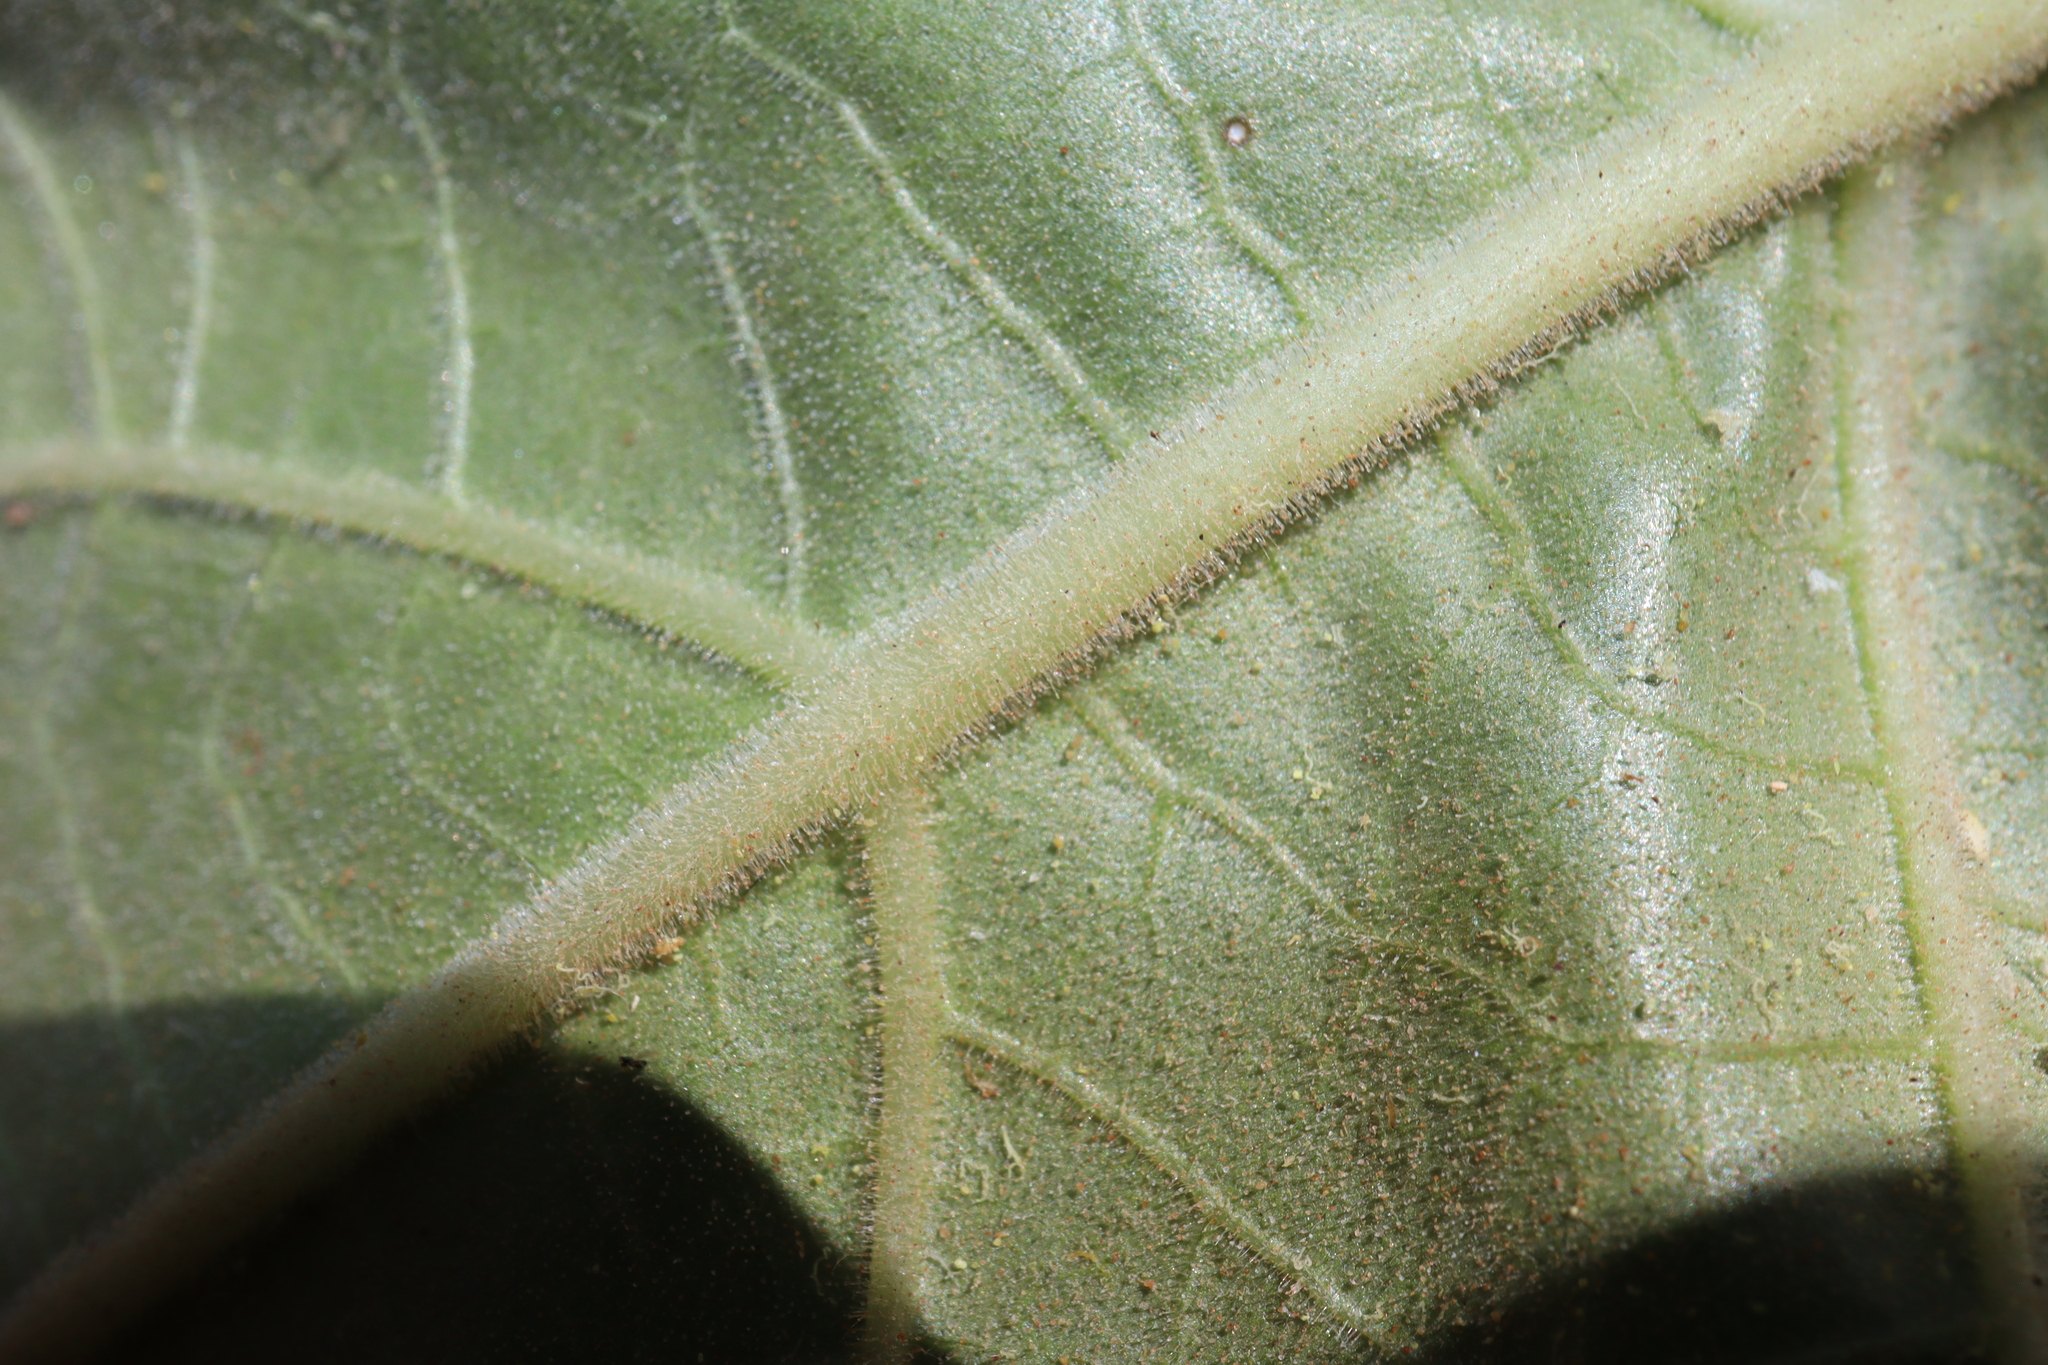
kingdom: Plantae
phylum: Tracheophyta
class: Magnoliopsida
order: Solanales
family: Solanaceae
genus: Datura
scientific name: Datura innoxia
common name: Downy thorn-apple
